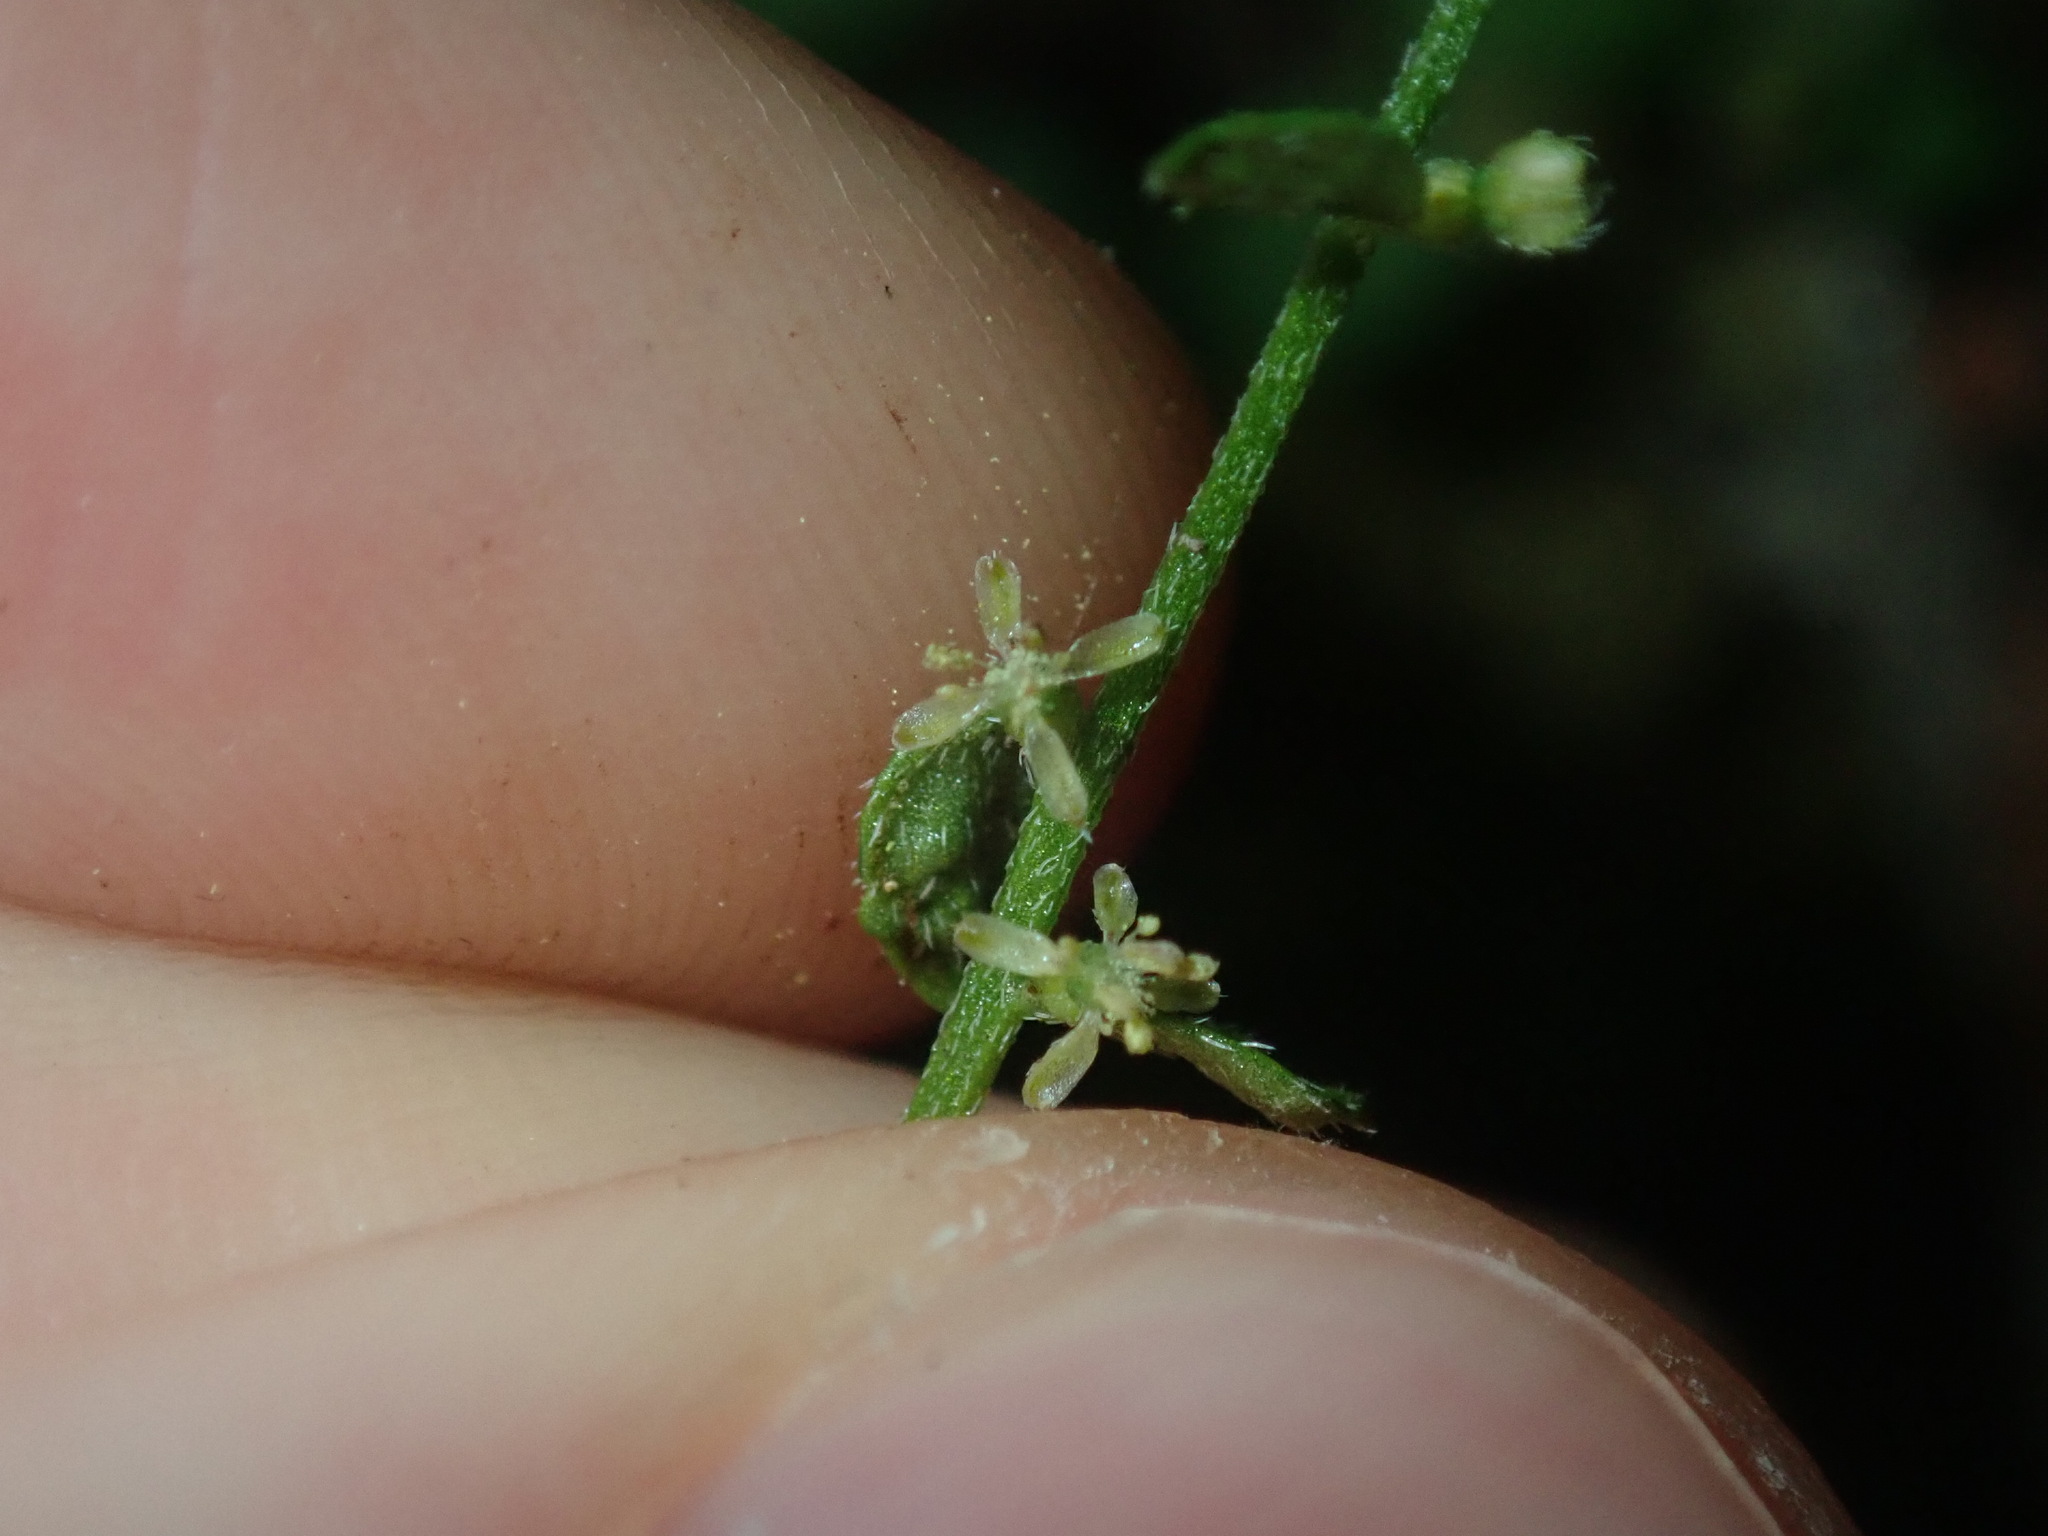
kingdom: Plantae
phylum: Tracheophyta
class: Magnoliopsida
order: Saxifragales
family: Haloragaceae
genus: Gonocarpus
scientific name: Gonocarpus humilis
